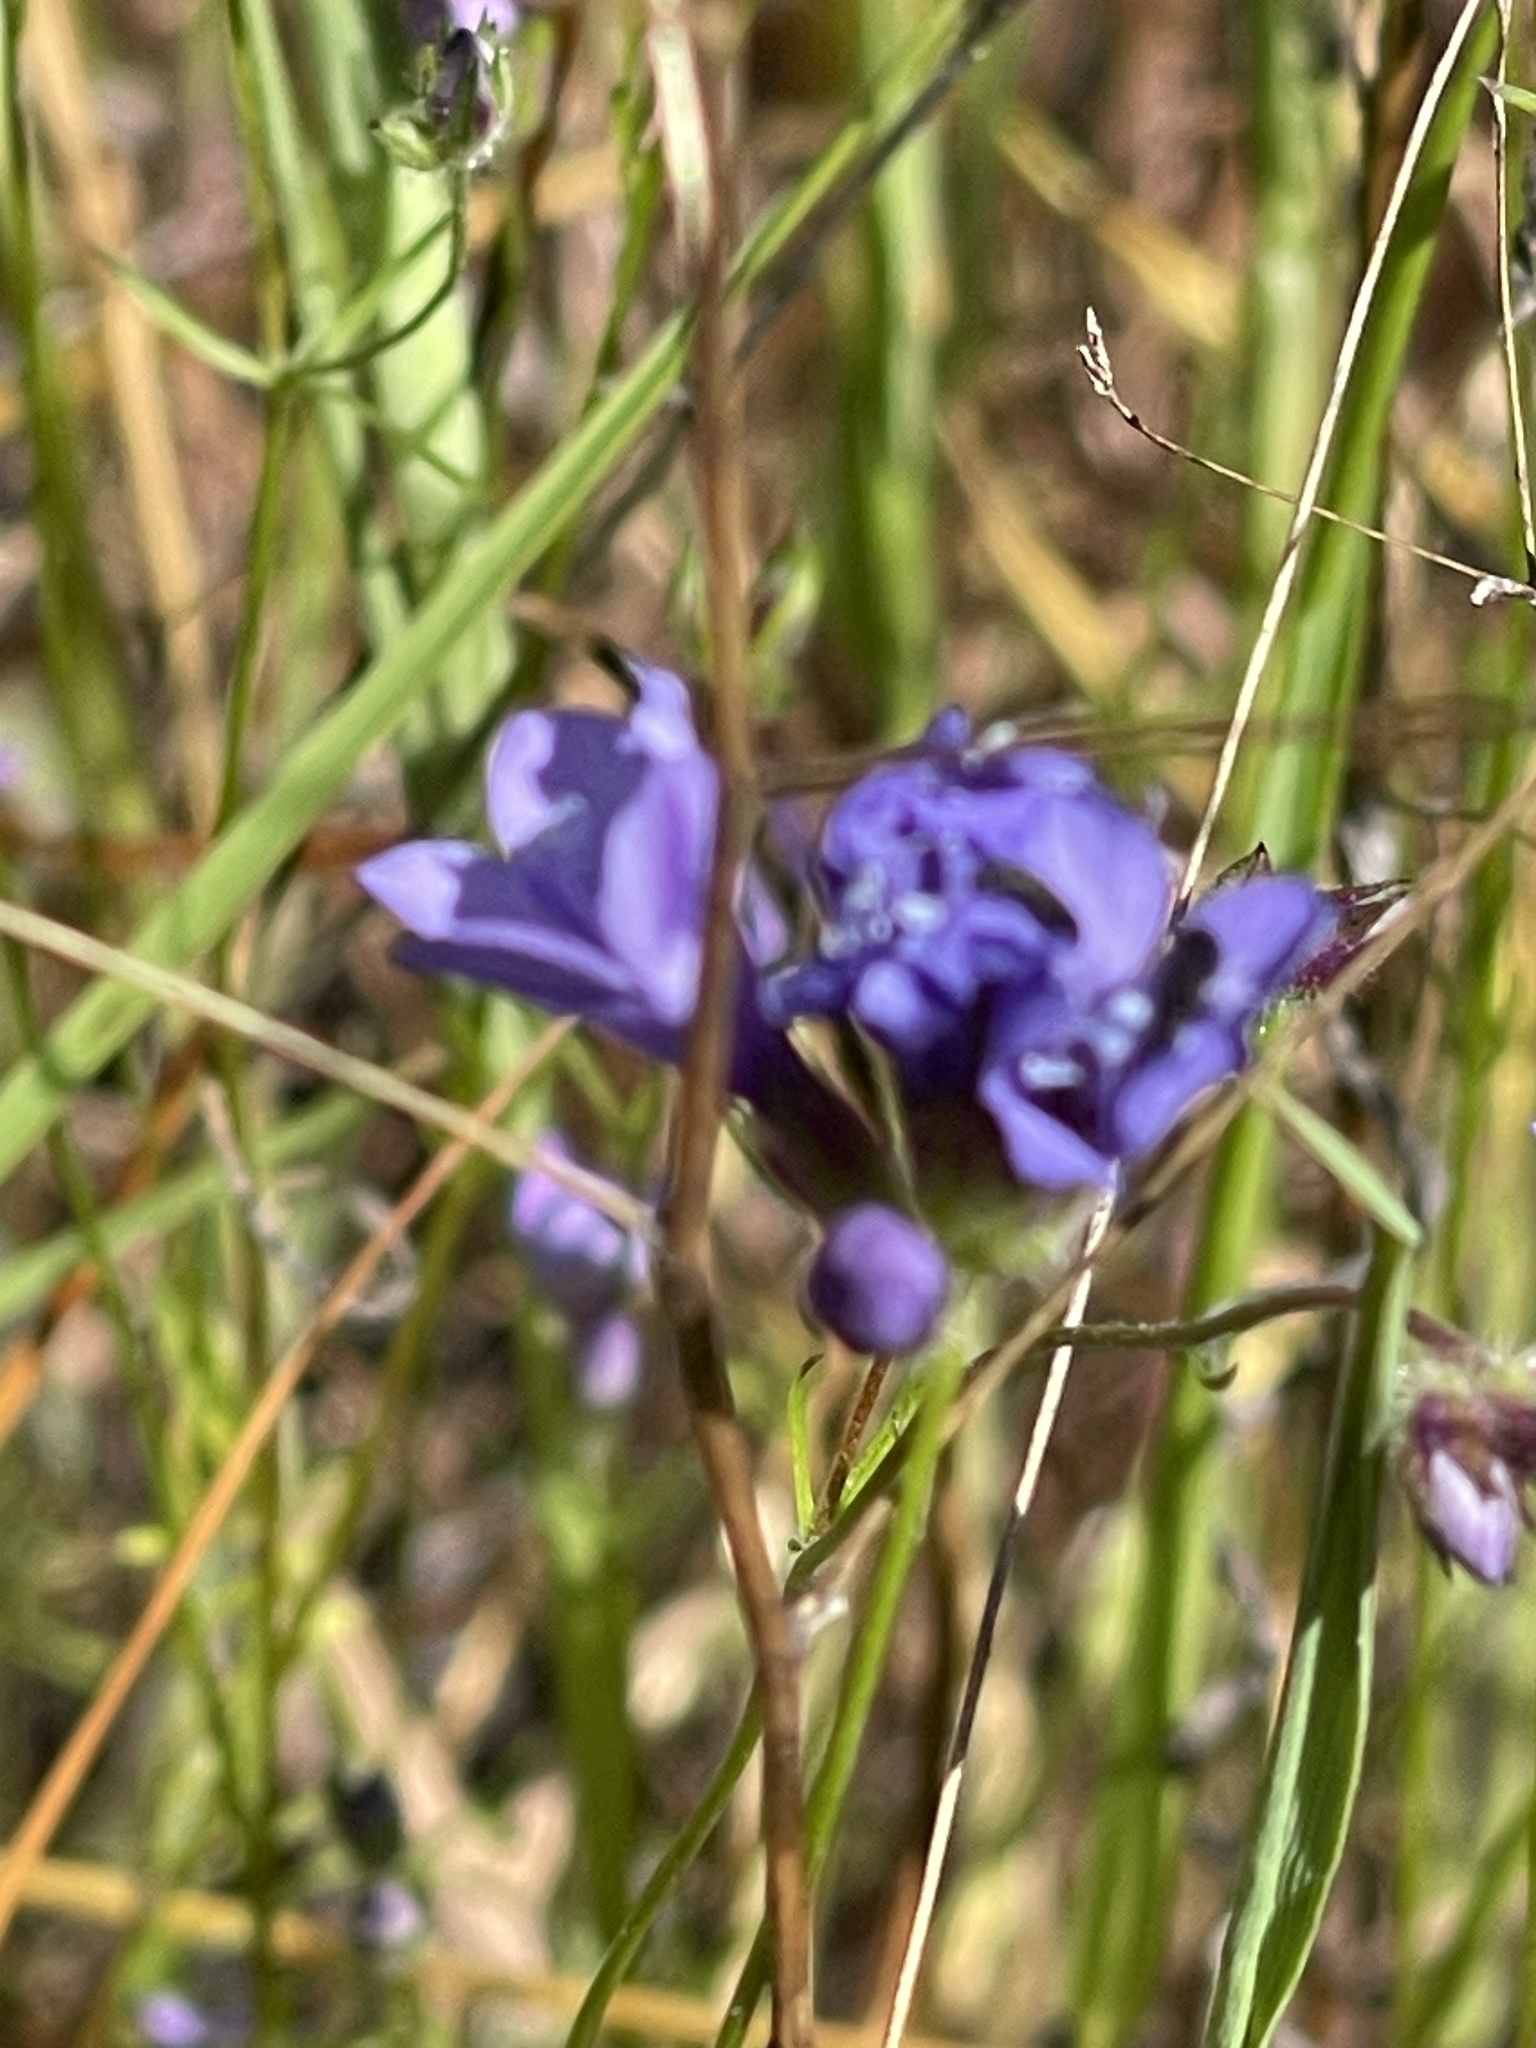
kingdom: Plantae
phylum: Tracheophyta
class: Magnoliopsida
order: Ericales
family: Polemoniaceae
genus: Gilia
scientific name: Gilia achilleifolia
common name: California gily-flower
